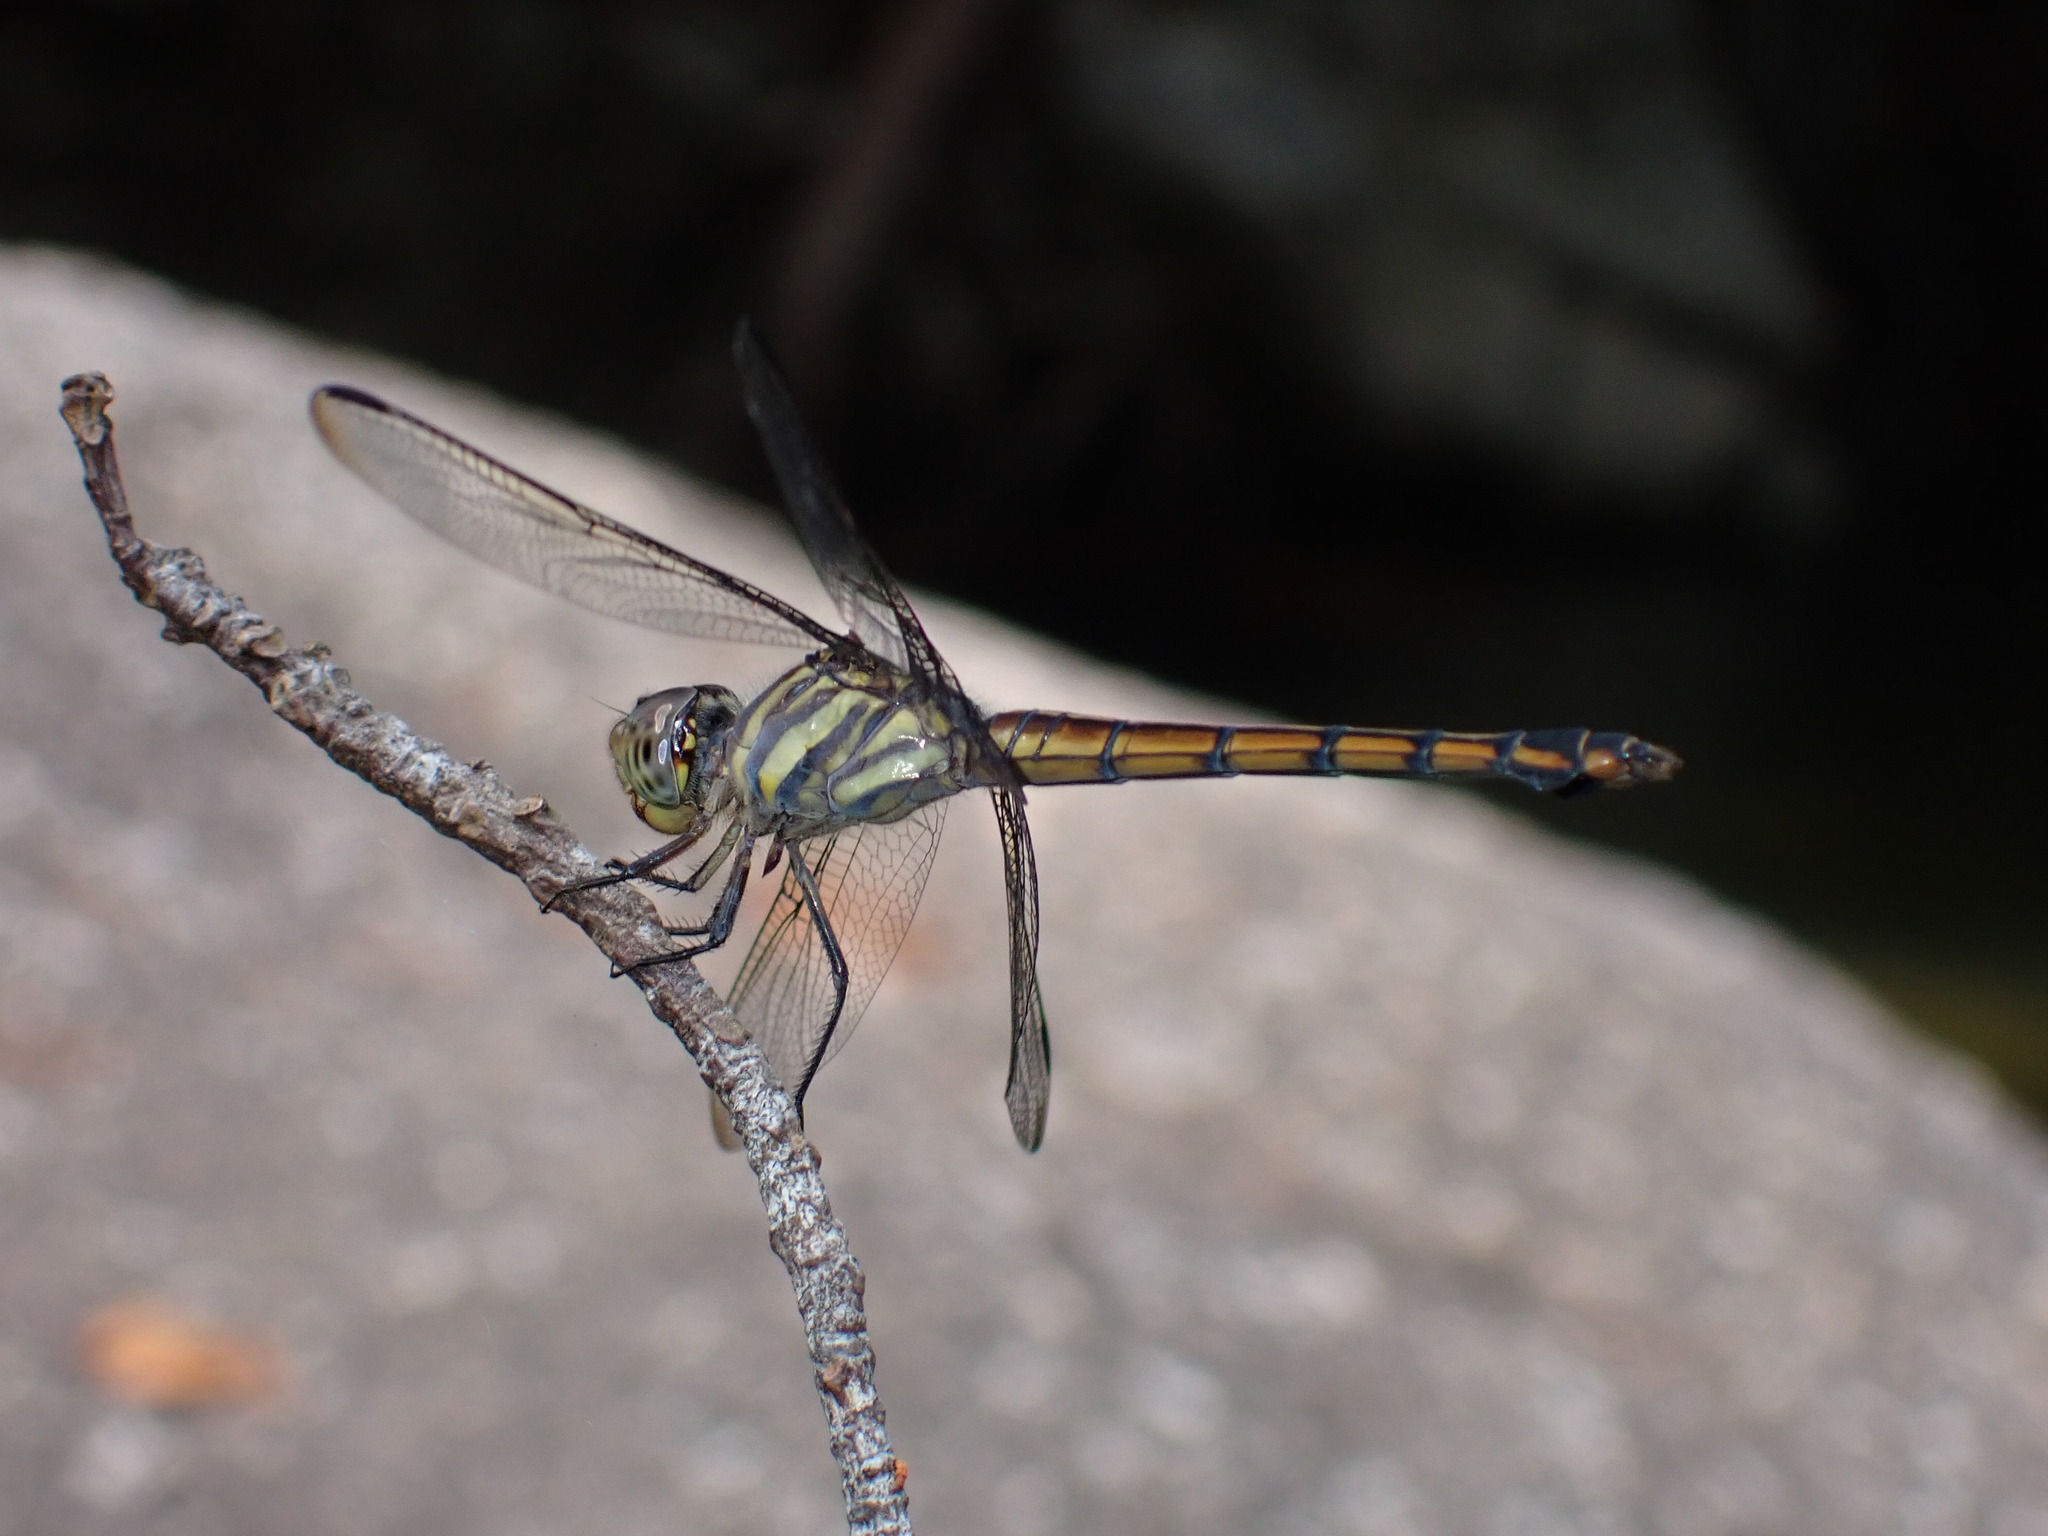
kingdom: Animalia
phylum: Arthropoda
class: Insecta
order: Odonata
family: Libellulidae
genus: Potamarcha
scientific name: Potamarcha congener
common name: Blue chaser
